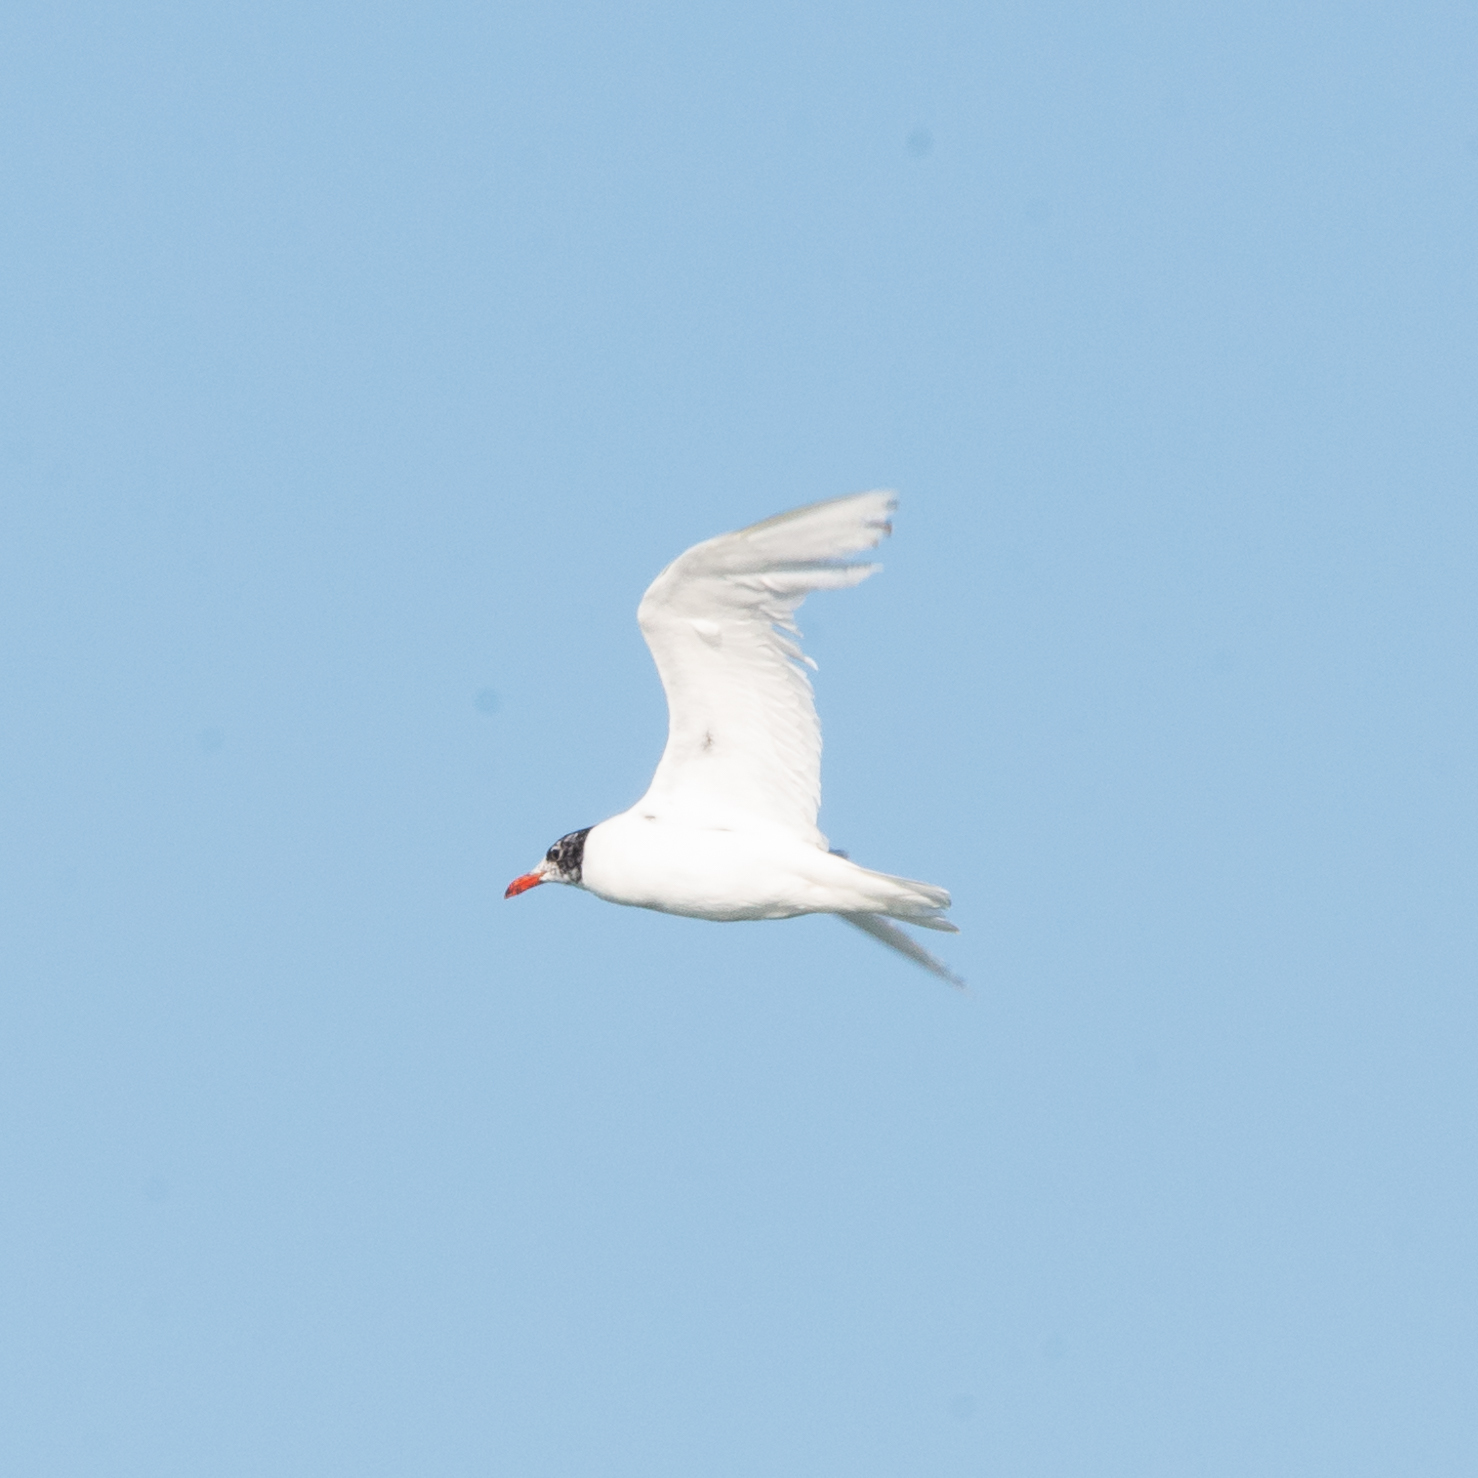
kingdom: Animalia
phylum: Chordata
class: Aves
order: Charadriiformes
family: Laridae
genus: Ichthyaetus
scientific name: Ichthyaetus melanocephalus
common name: Mediterranean gull
